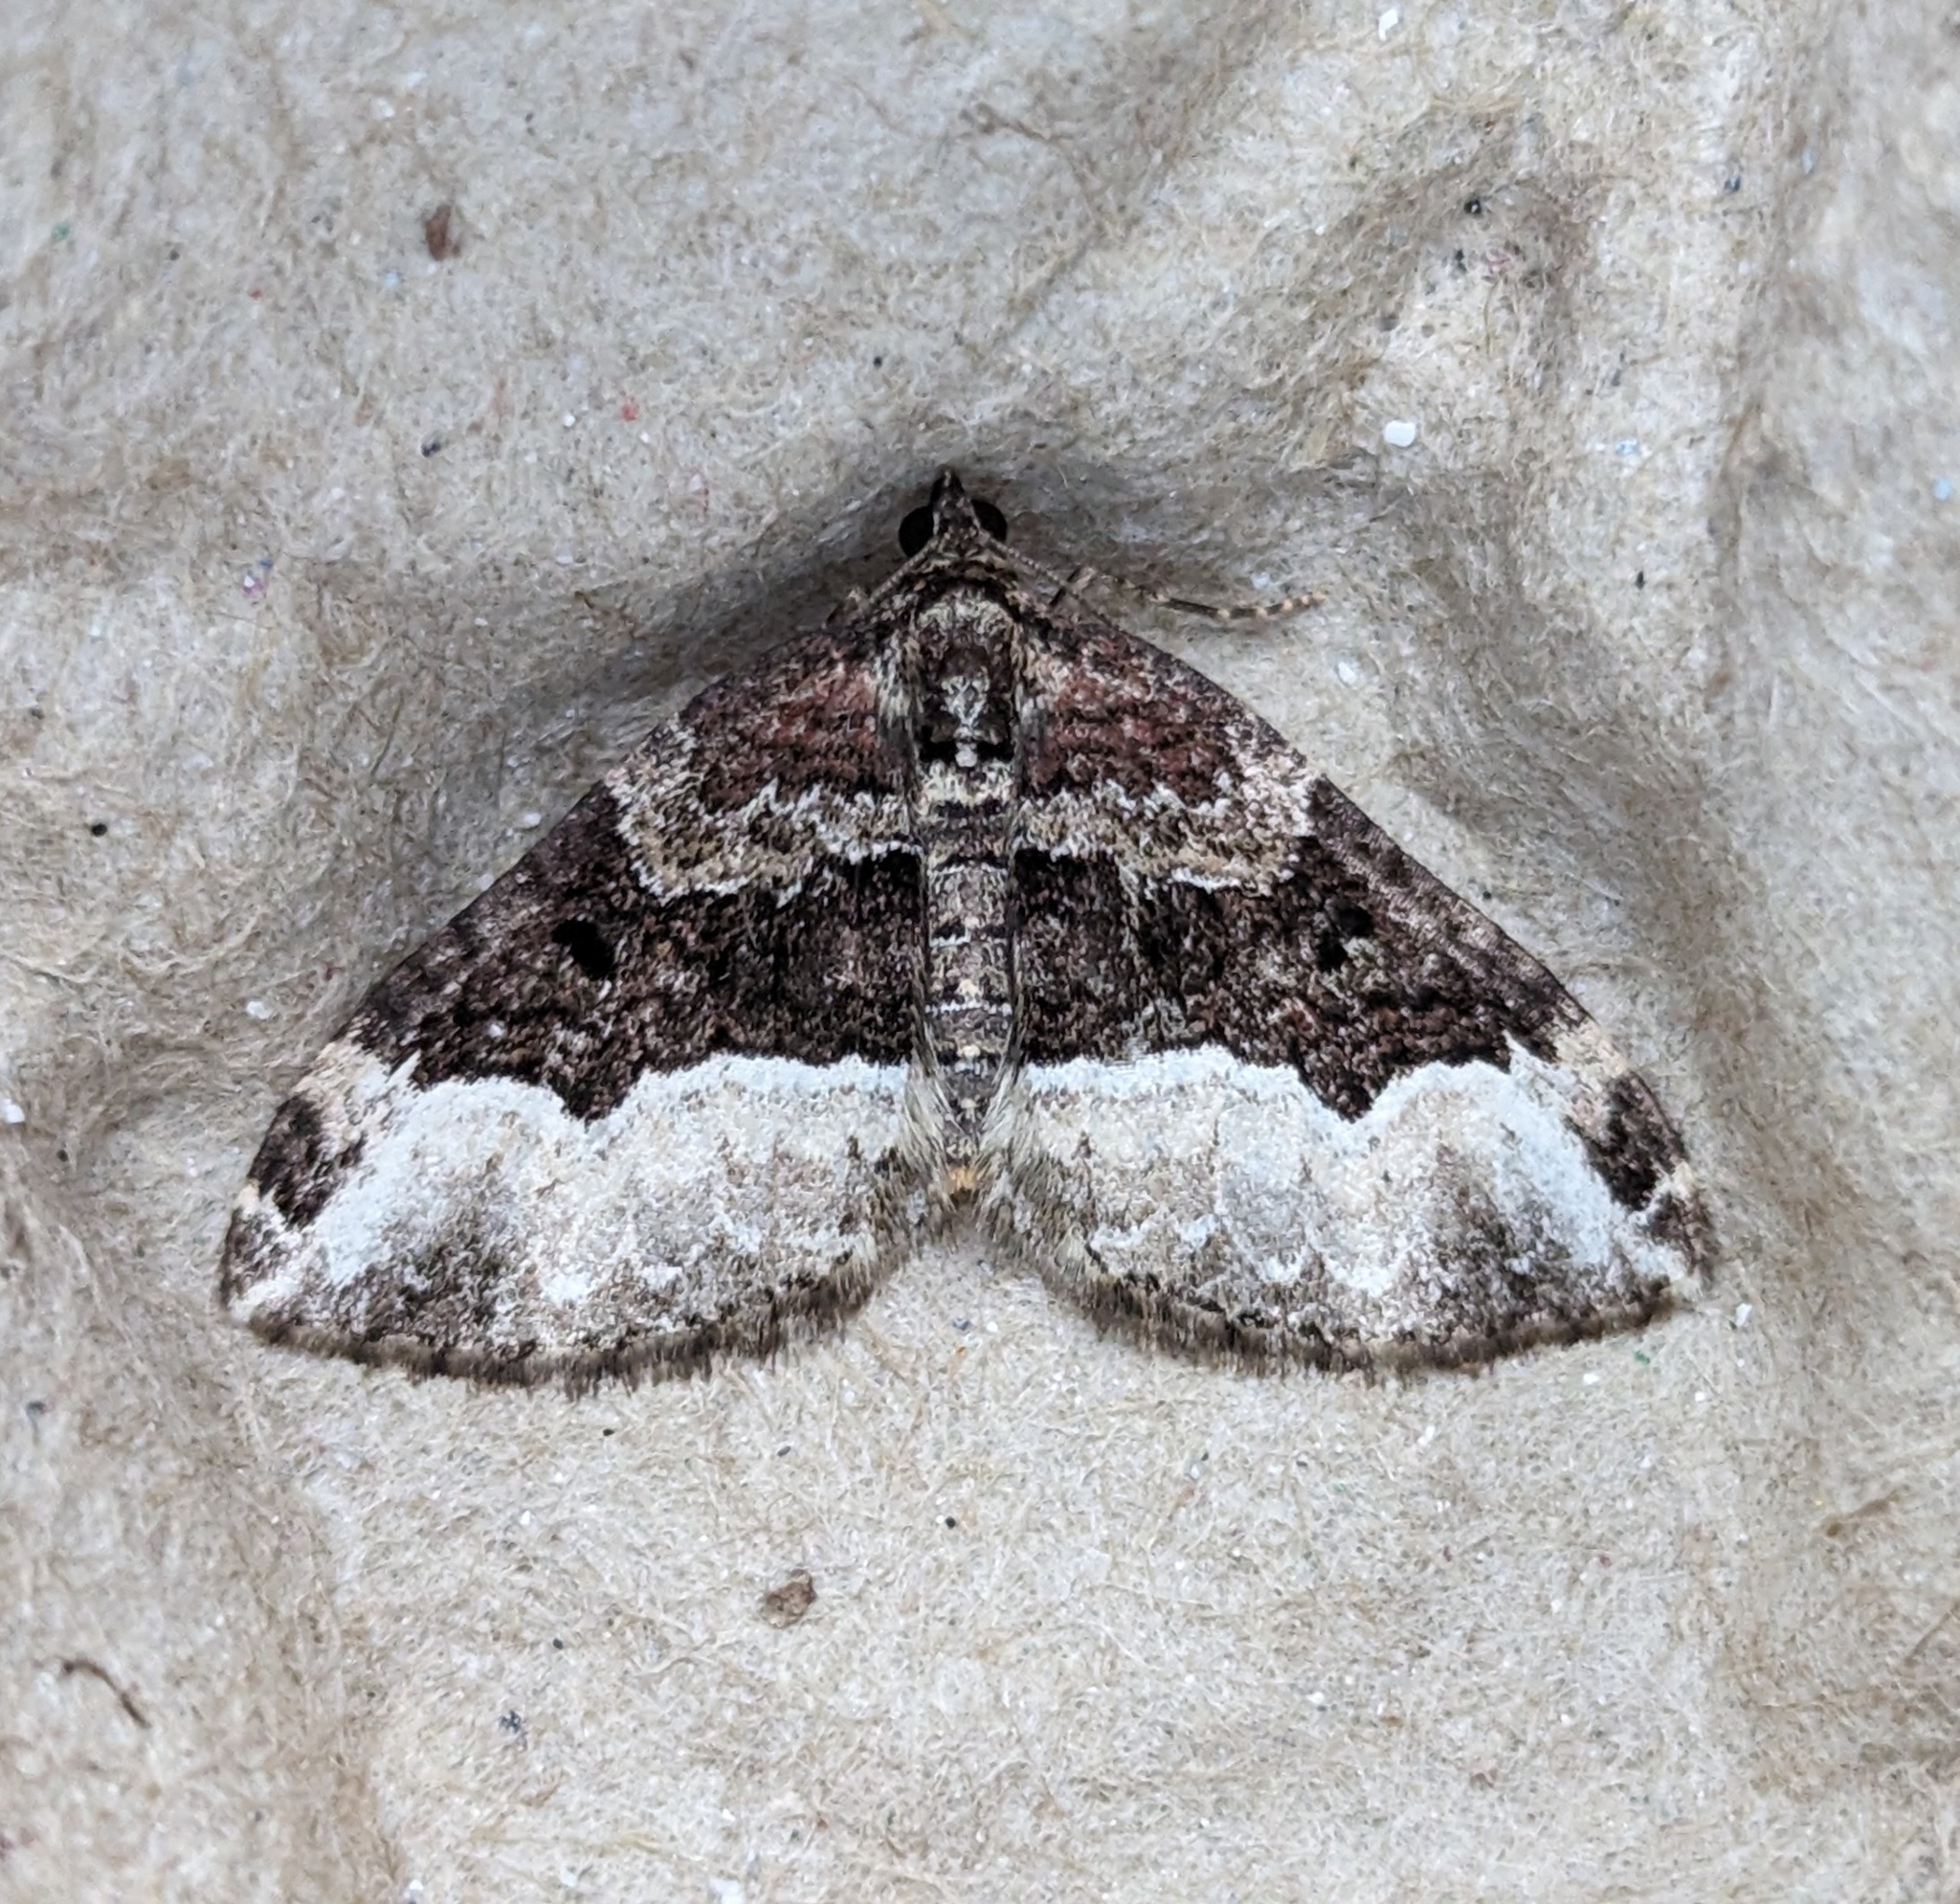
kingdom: Animalia
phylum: Arthropoda
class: Insecta
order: Lepidoptera
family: Geometridae
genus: Euphyia
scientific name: Euphyia intermediata
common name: Sharp-angled carpet
